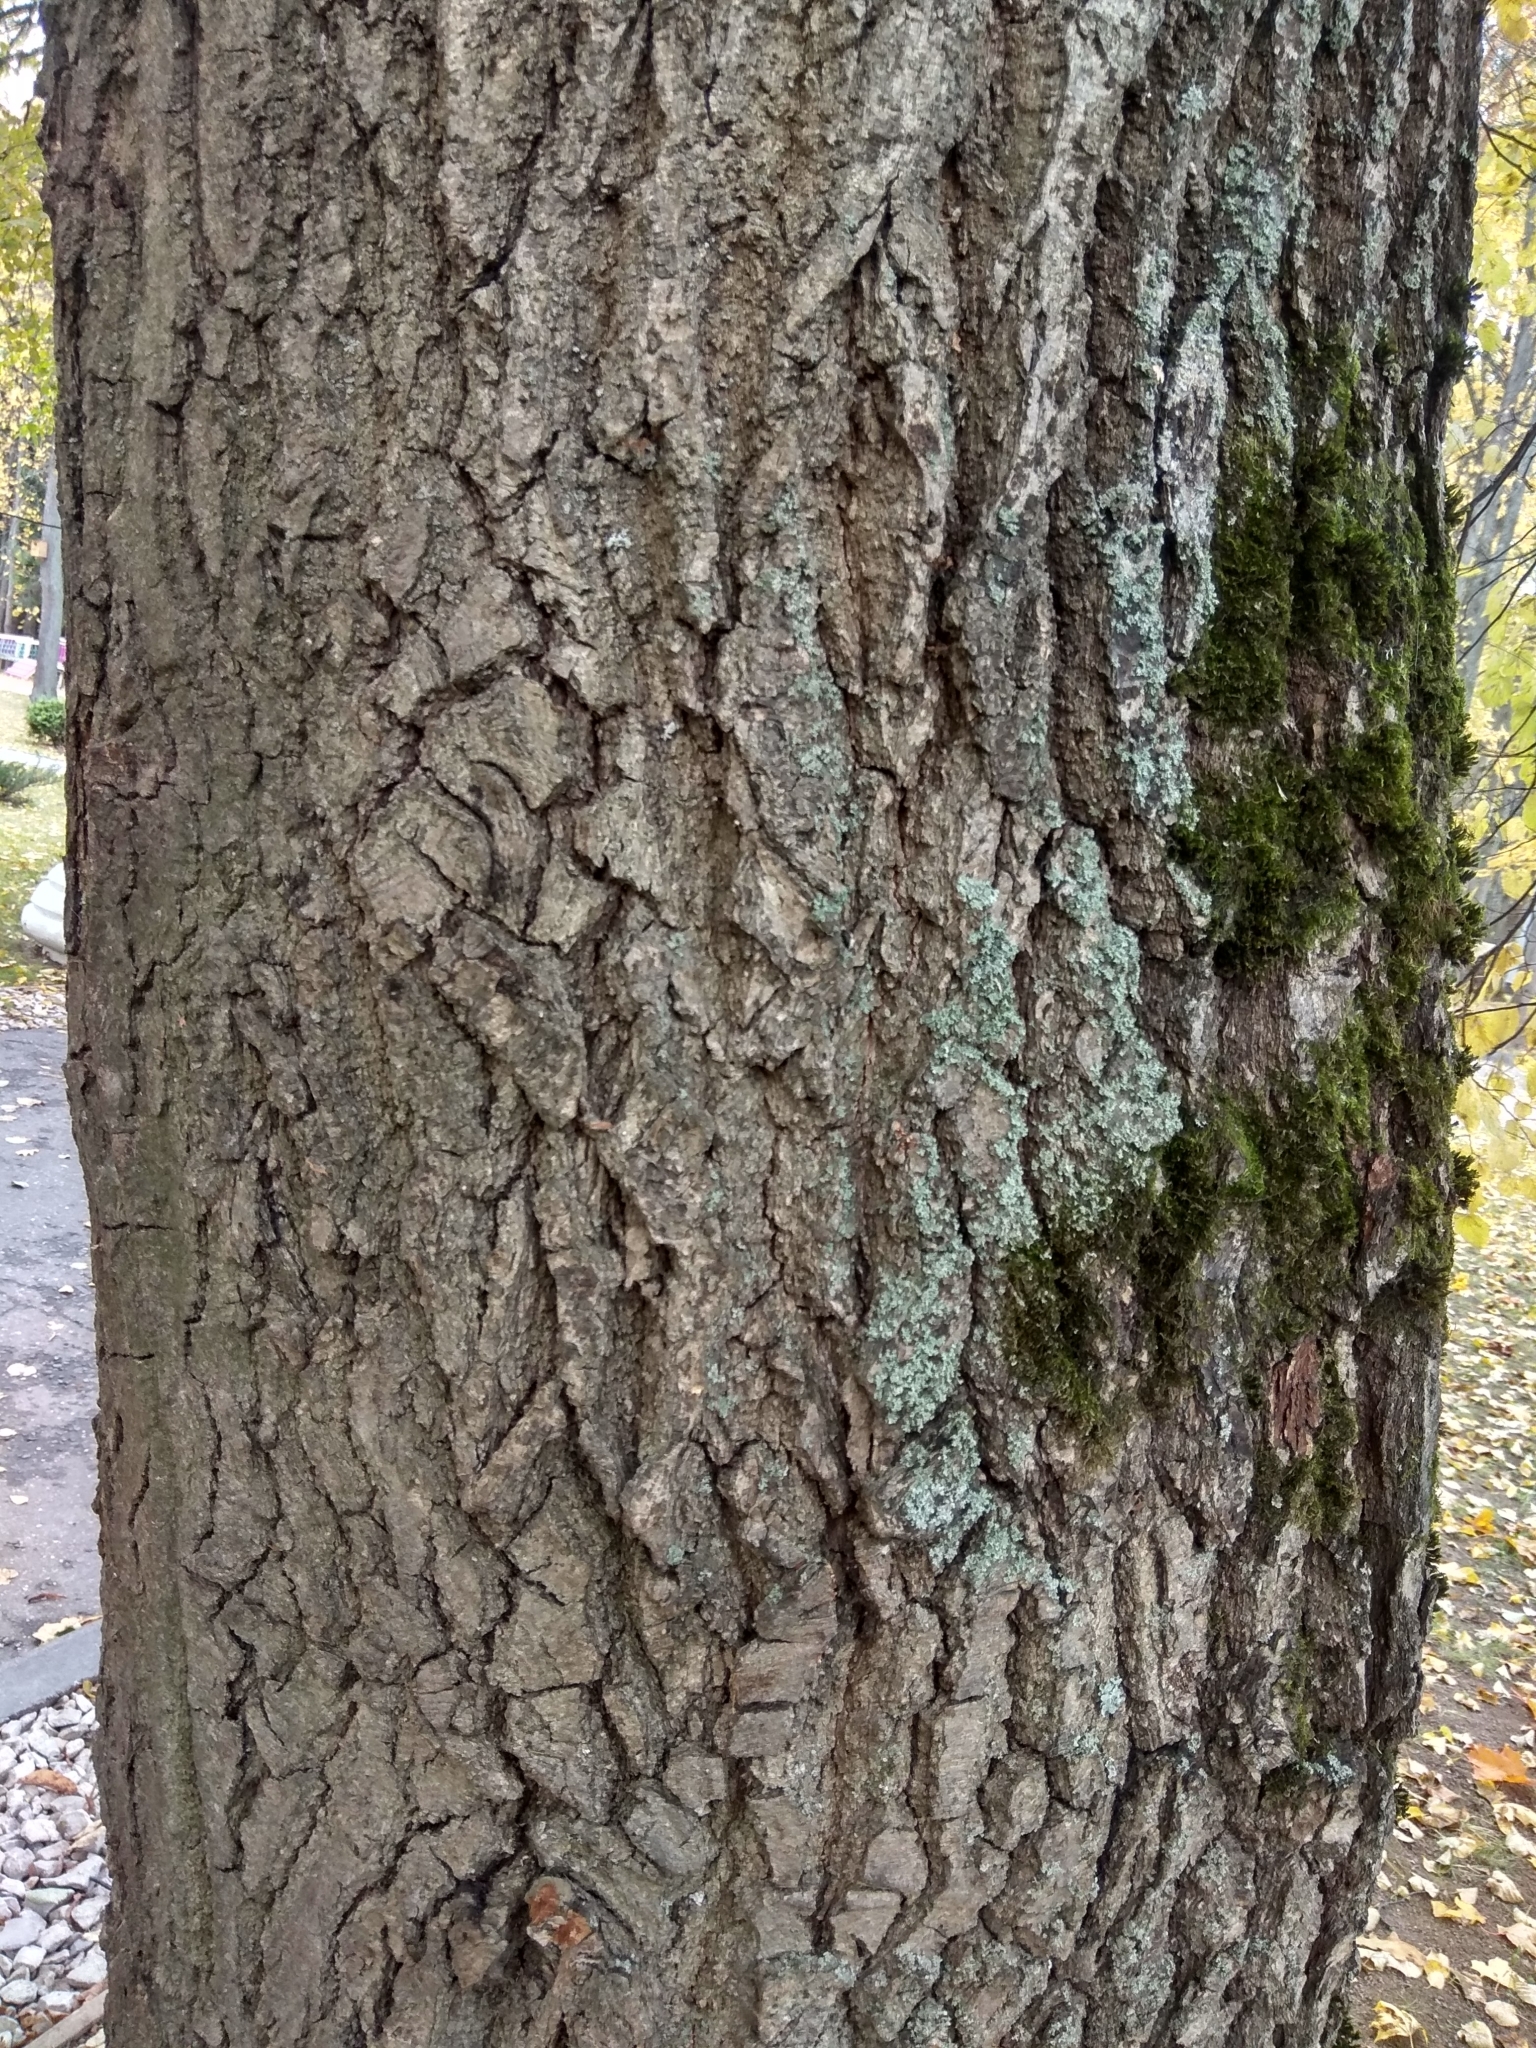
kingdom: Plantae
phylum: Tracheophyta
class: Magnoliopsida
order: Fagales
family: Fagaceae
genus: Quercus
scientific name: Quercus robur
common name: Pedunculate oak
